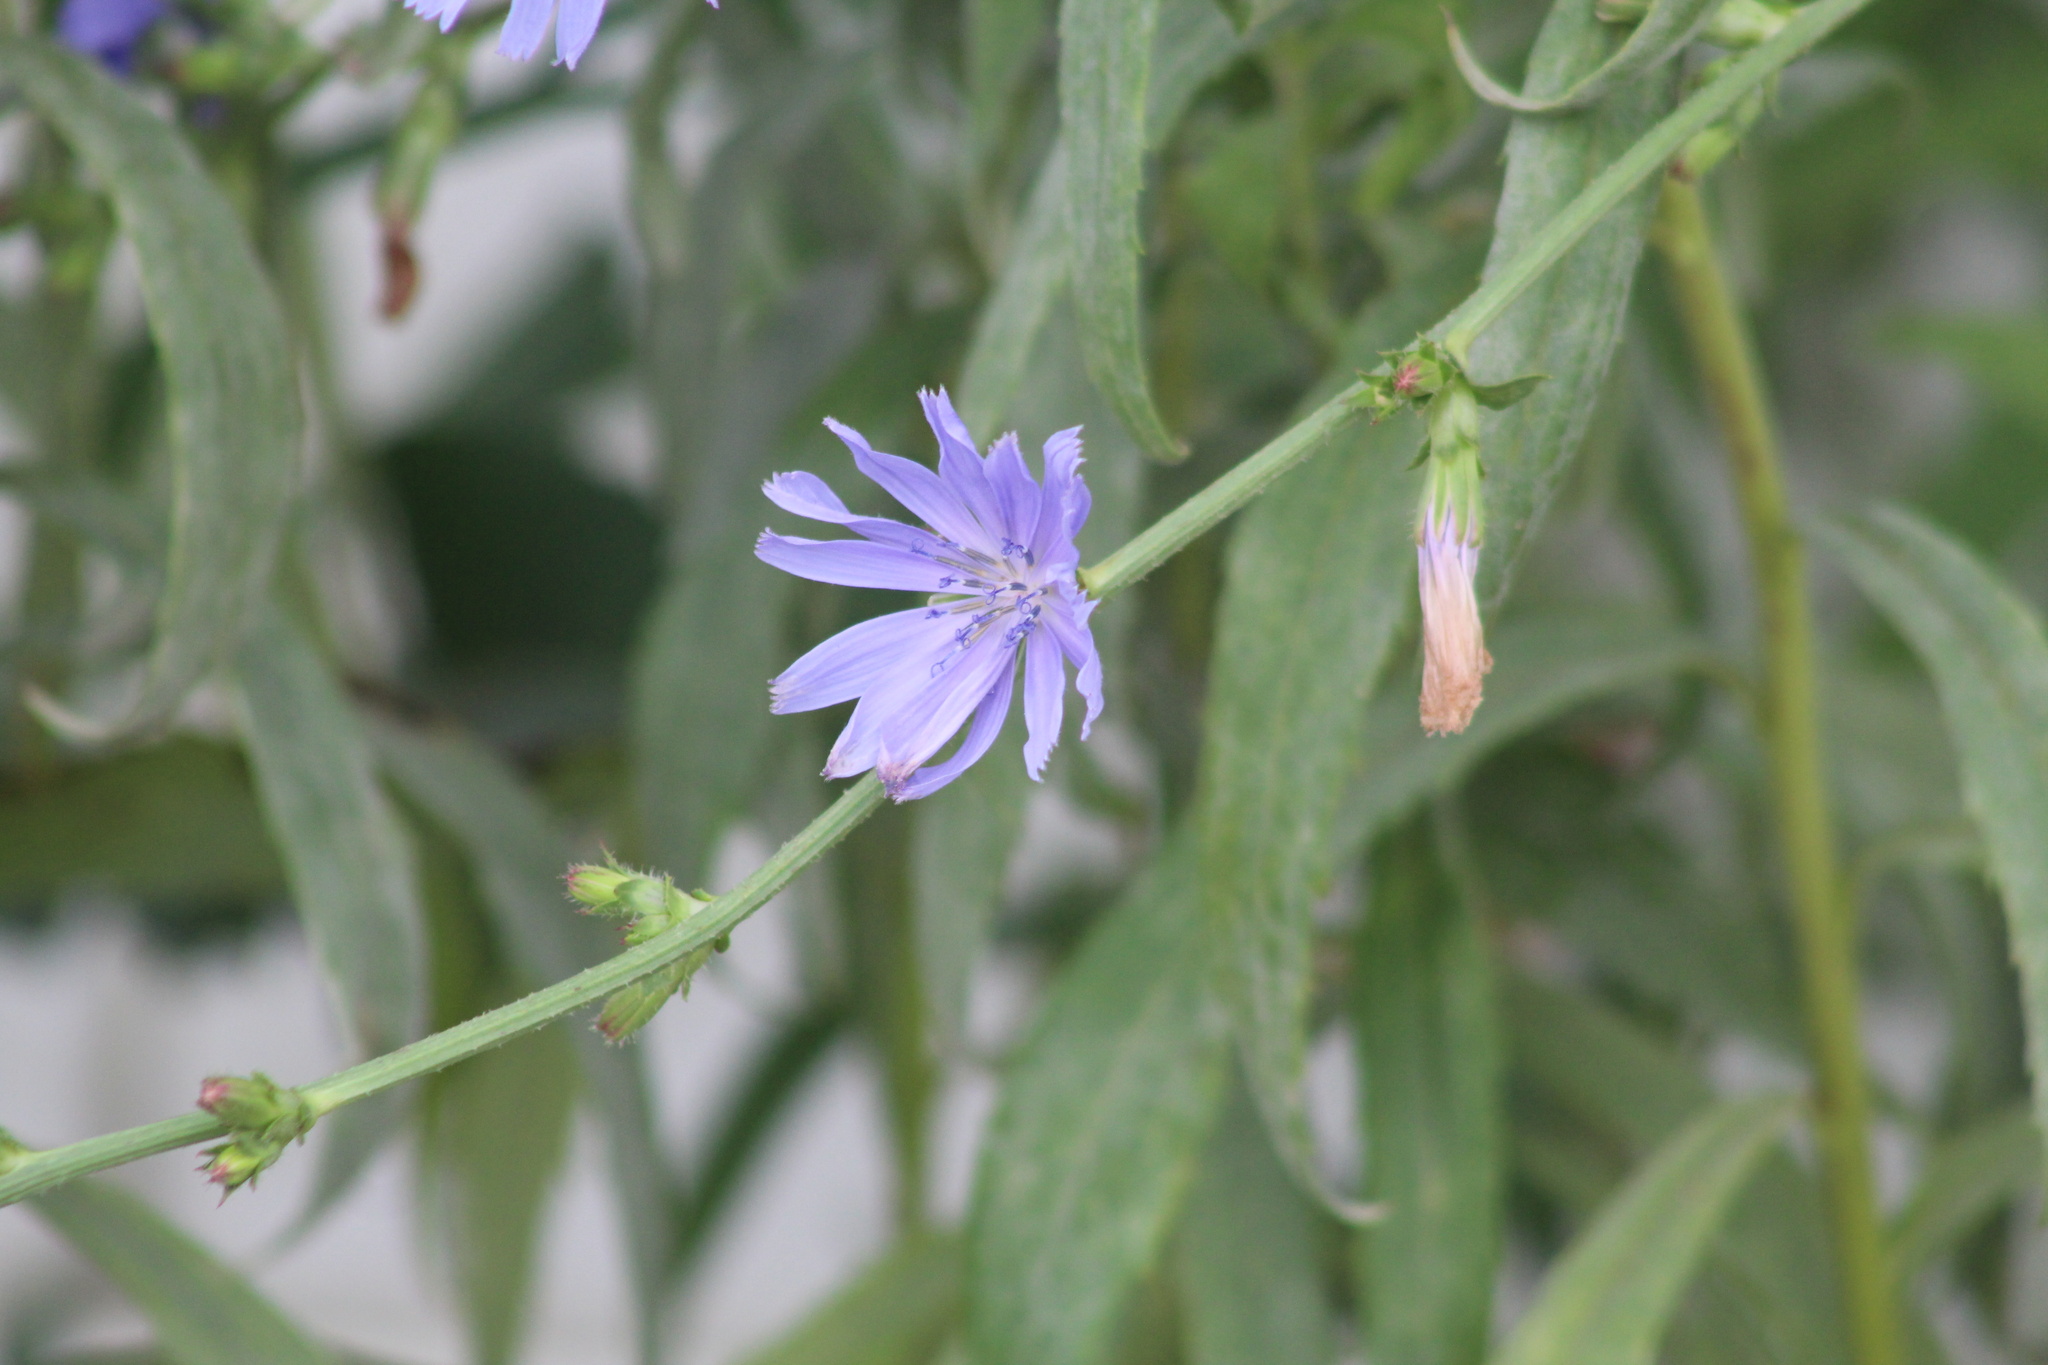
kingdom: Plantae
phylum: Tracheophyta
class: Magnoliopsida
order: Asterales
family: Asteraceae
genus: Cichorium
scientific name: Cichorium intybus
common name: Chicory
